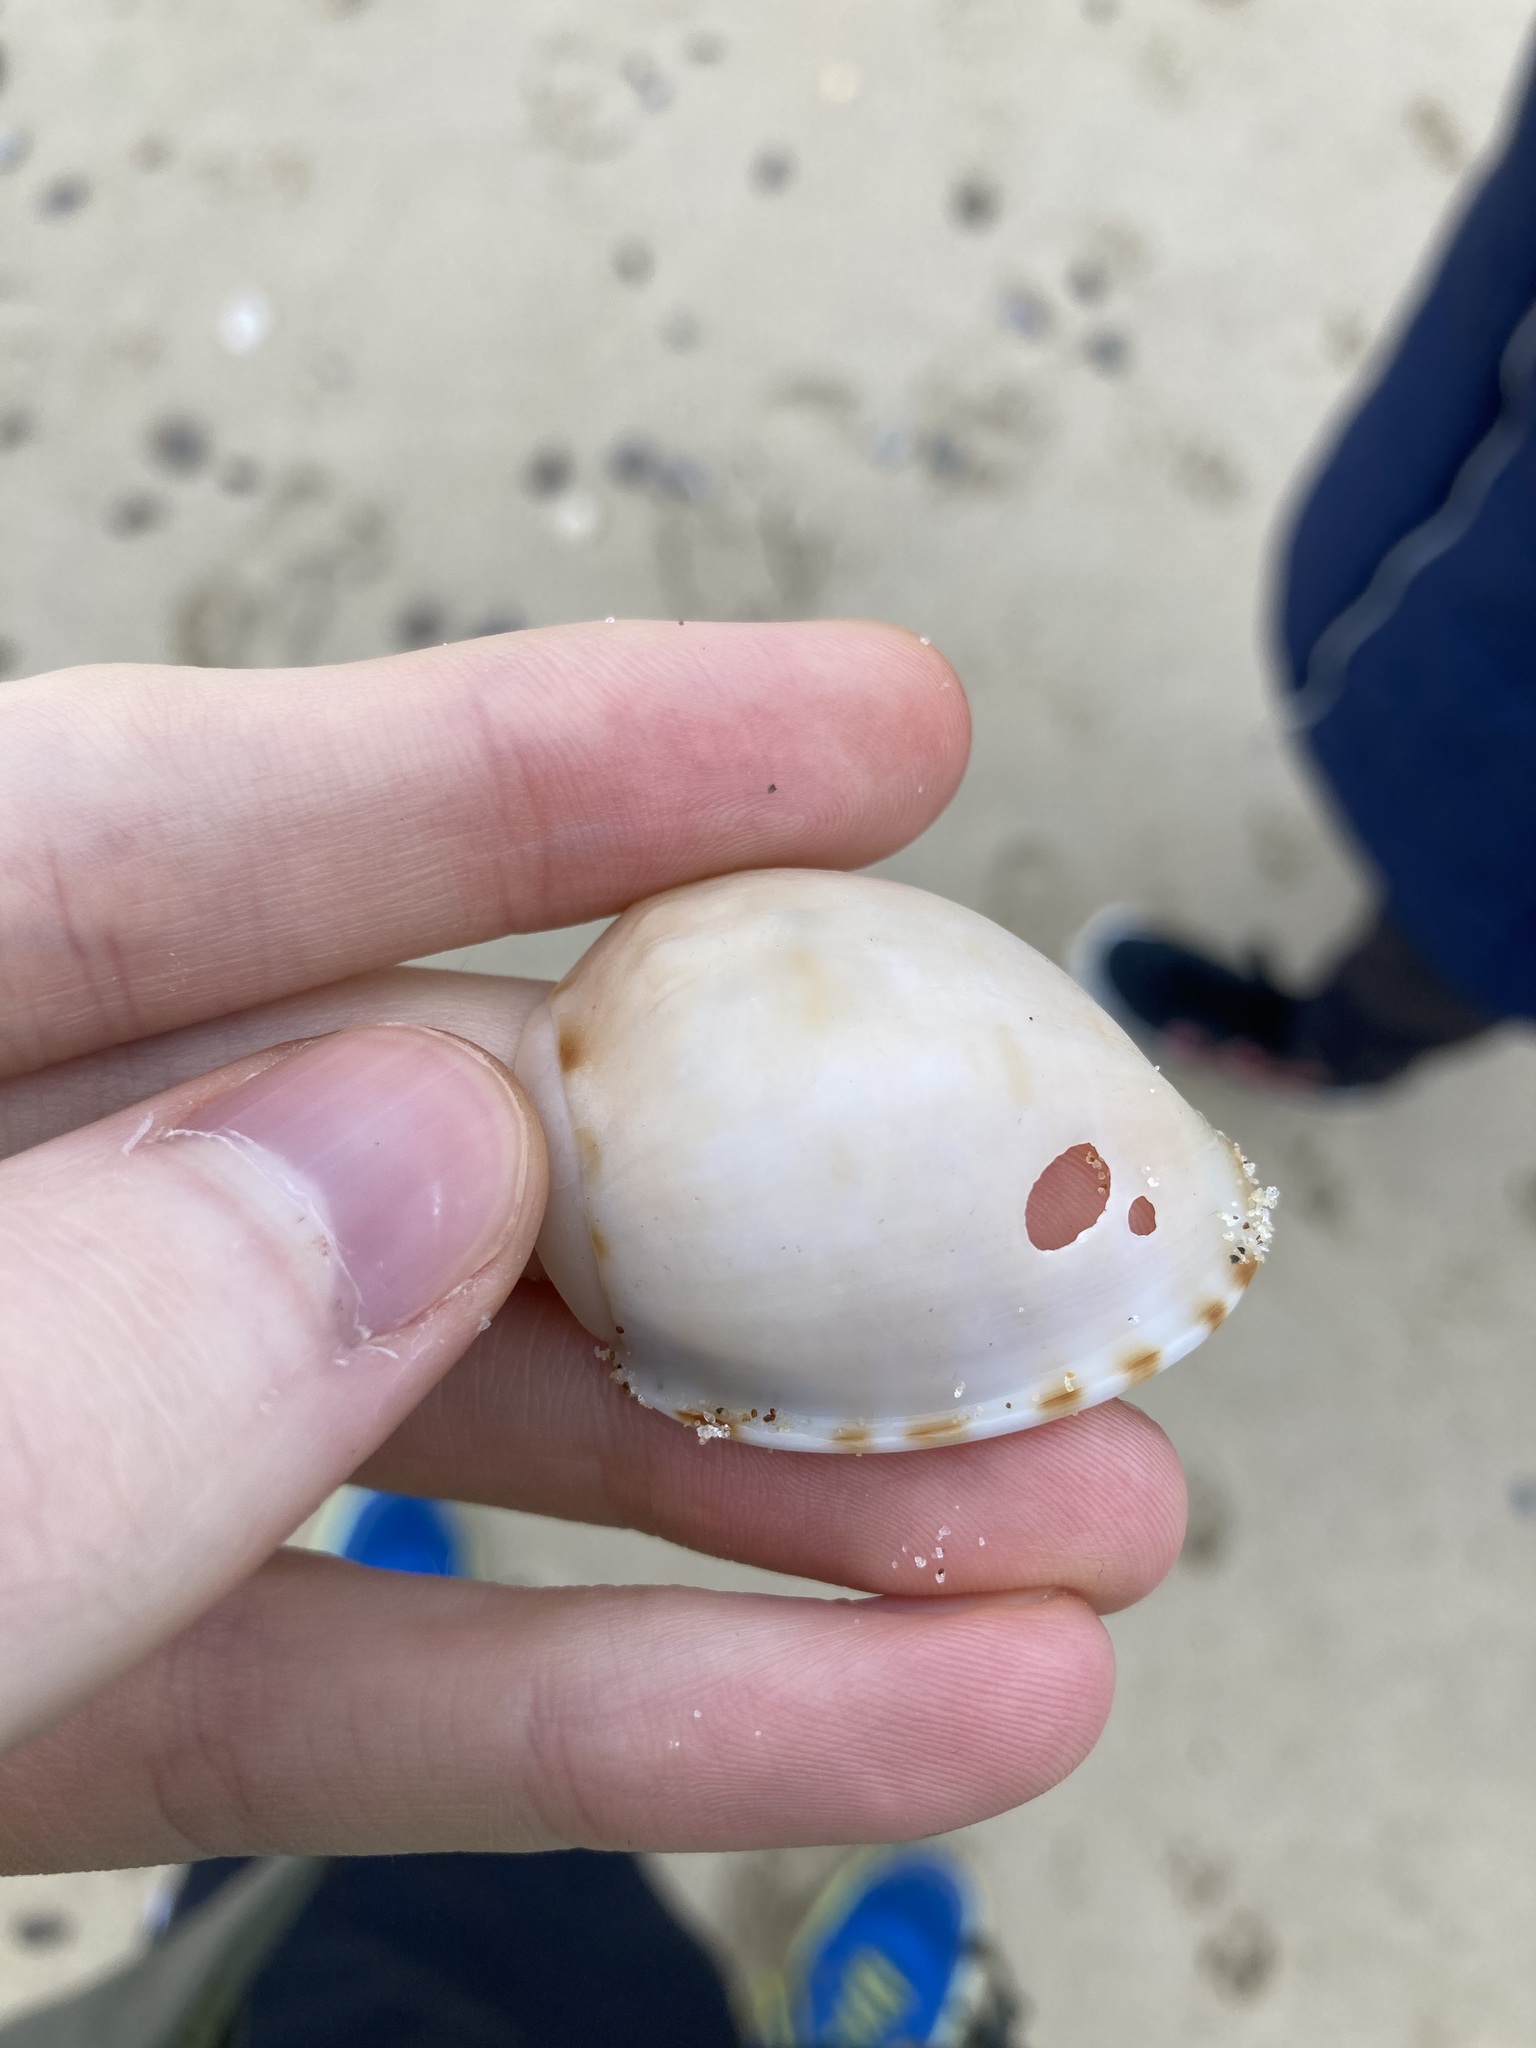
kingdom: Animalia
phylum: Mollusca
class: Gastropoda
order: Littorinimorpha
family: Cassidae
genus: Semicassis
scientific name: Semicassis labiata
